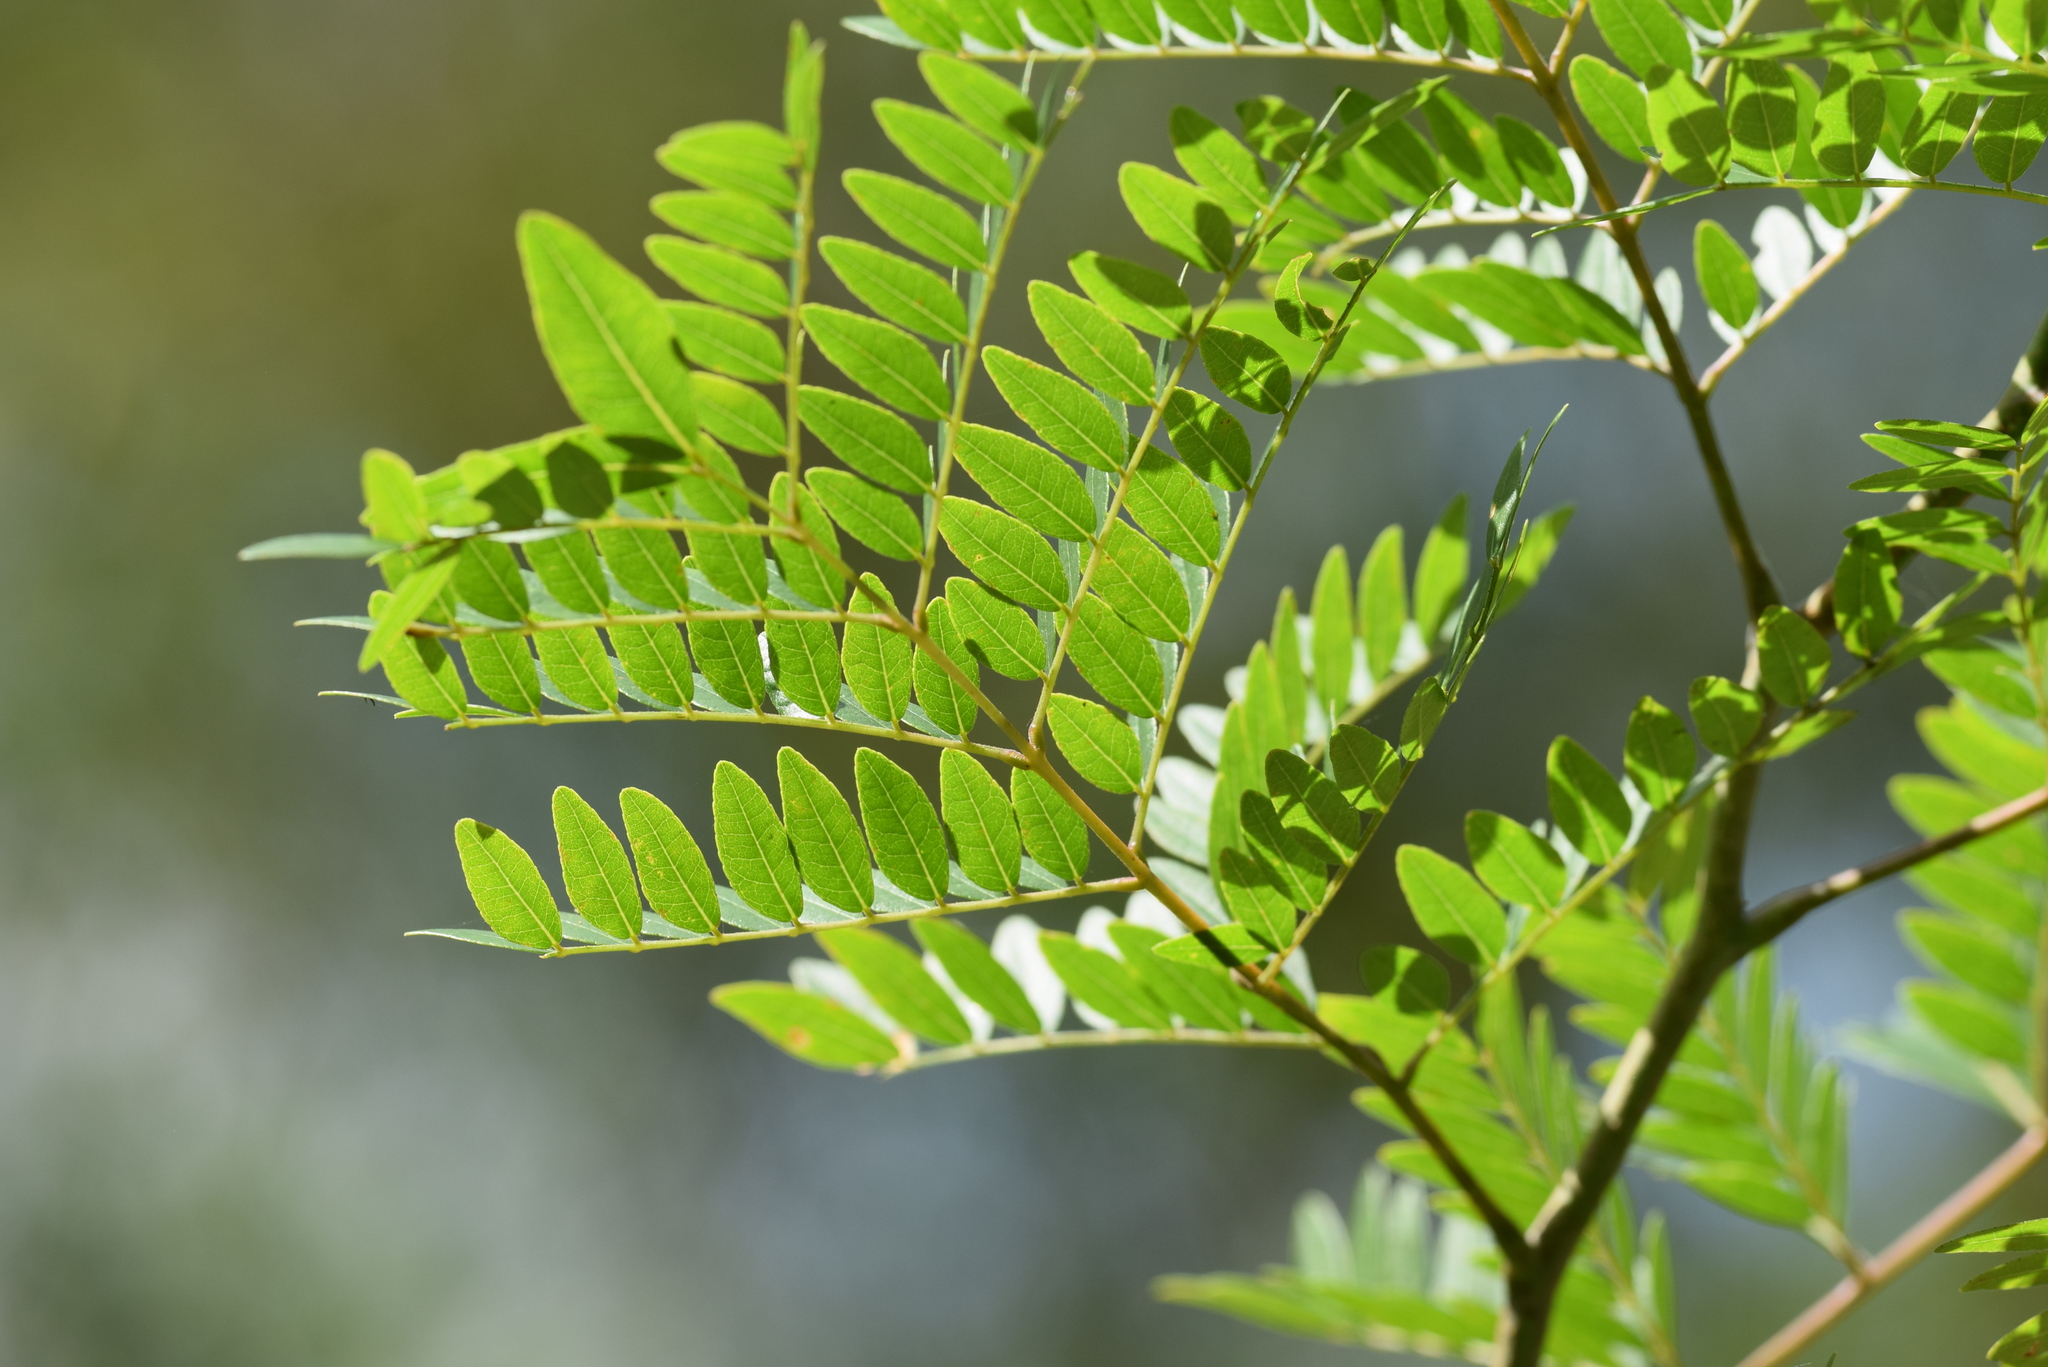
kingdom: Plantae
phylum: Tracheophyta
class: Magnoliopsida
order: Fabales
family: Fabaceae
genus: Gleditsia
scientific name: Gleditsia triacanthos
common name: Common honeylocust
